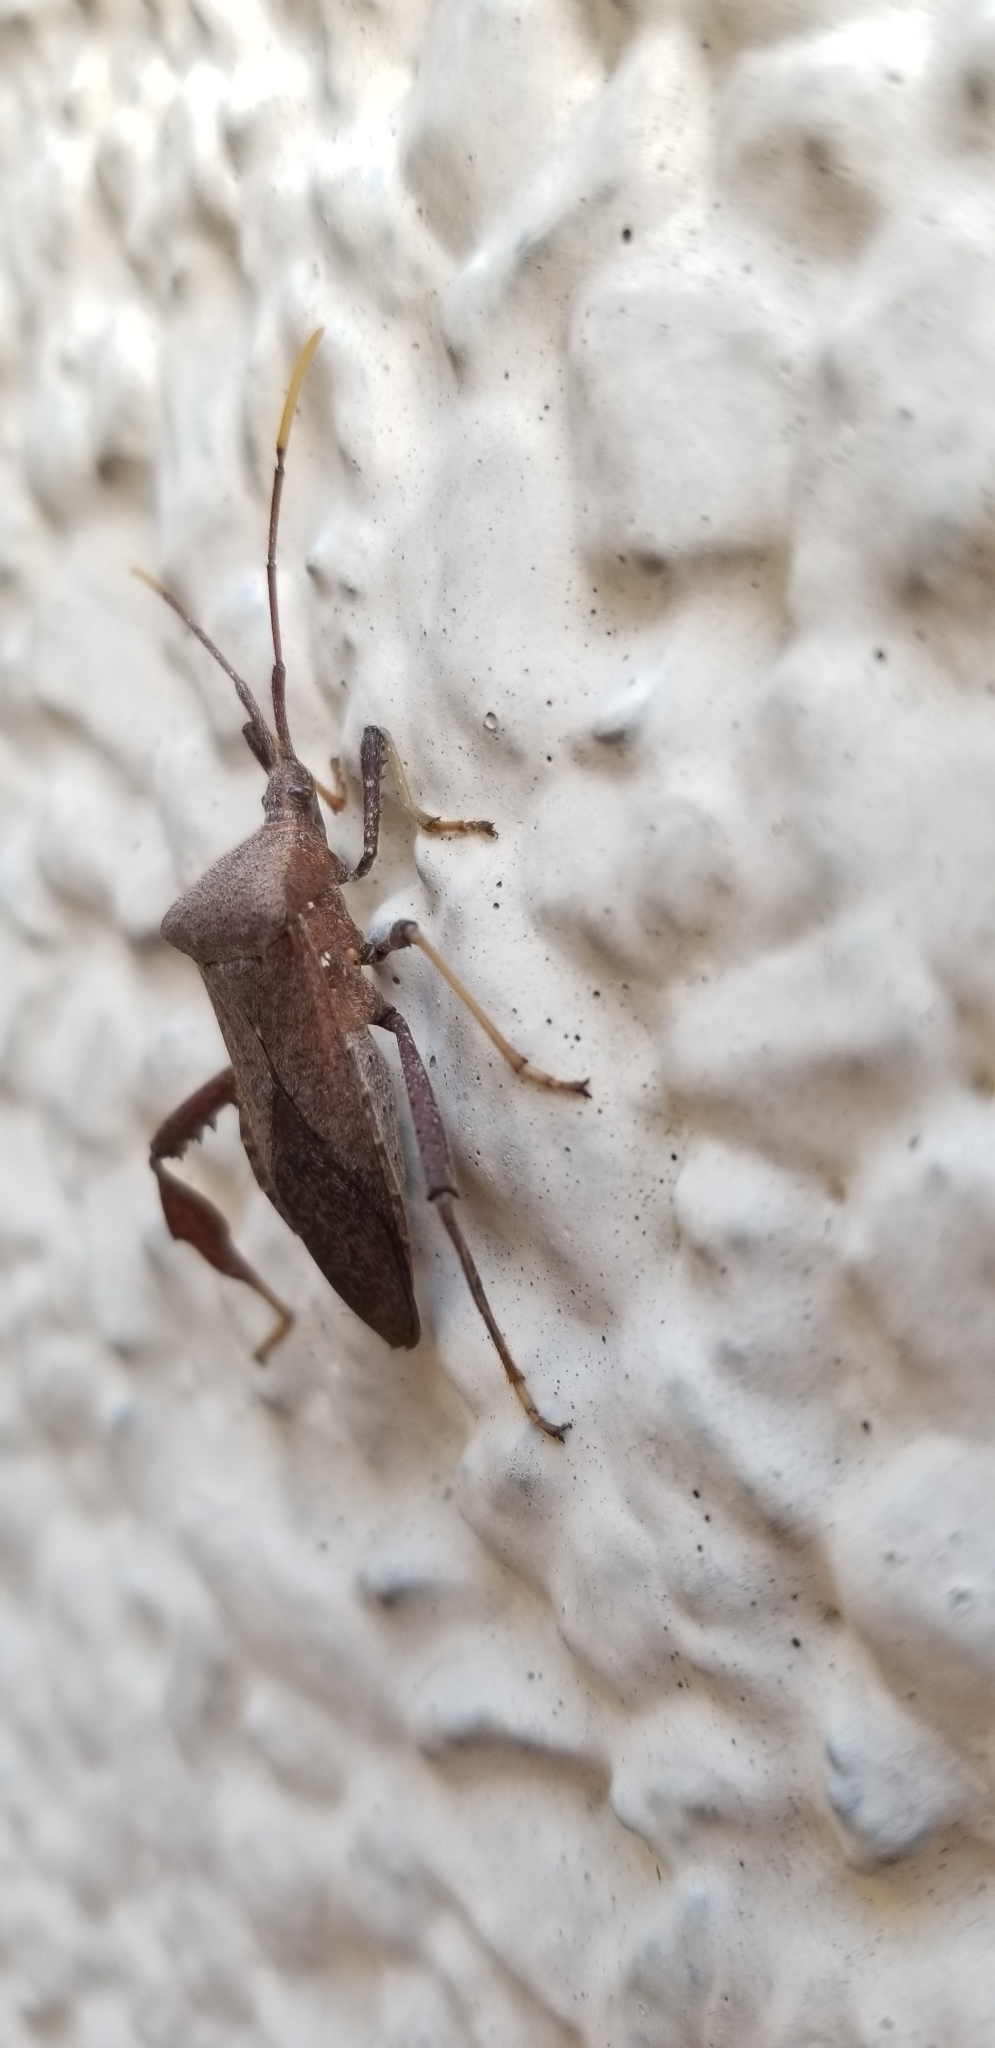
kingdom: Animalia
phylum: Arthropoda
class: Insecta
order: Hemiptera
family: Coreidae
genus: Acanthocephala
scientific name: Acanthocephala terminalis
